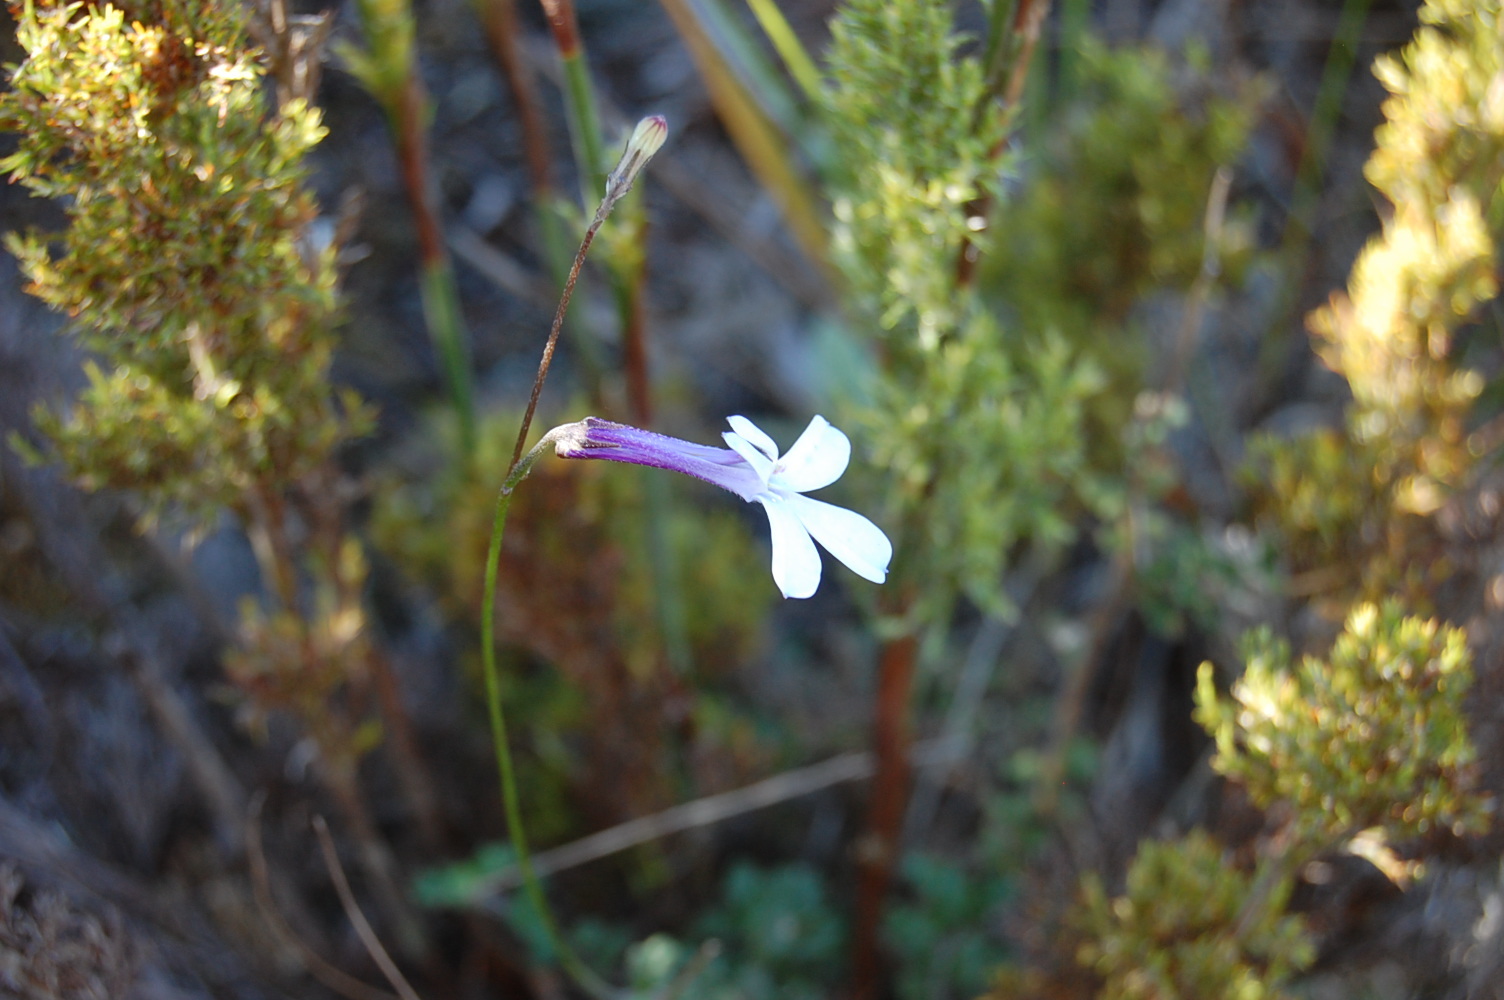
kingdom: Plantae
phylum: Tracheophyta
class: Magnoliopsida
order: Asterales
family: Campanulaceae
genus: Lobelia
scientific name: Lobelia dichroma
